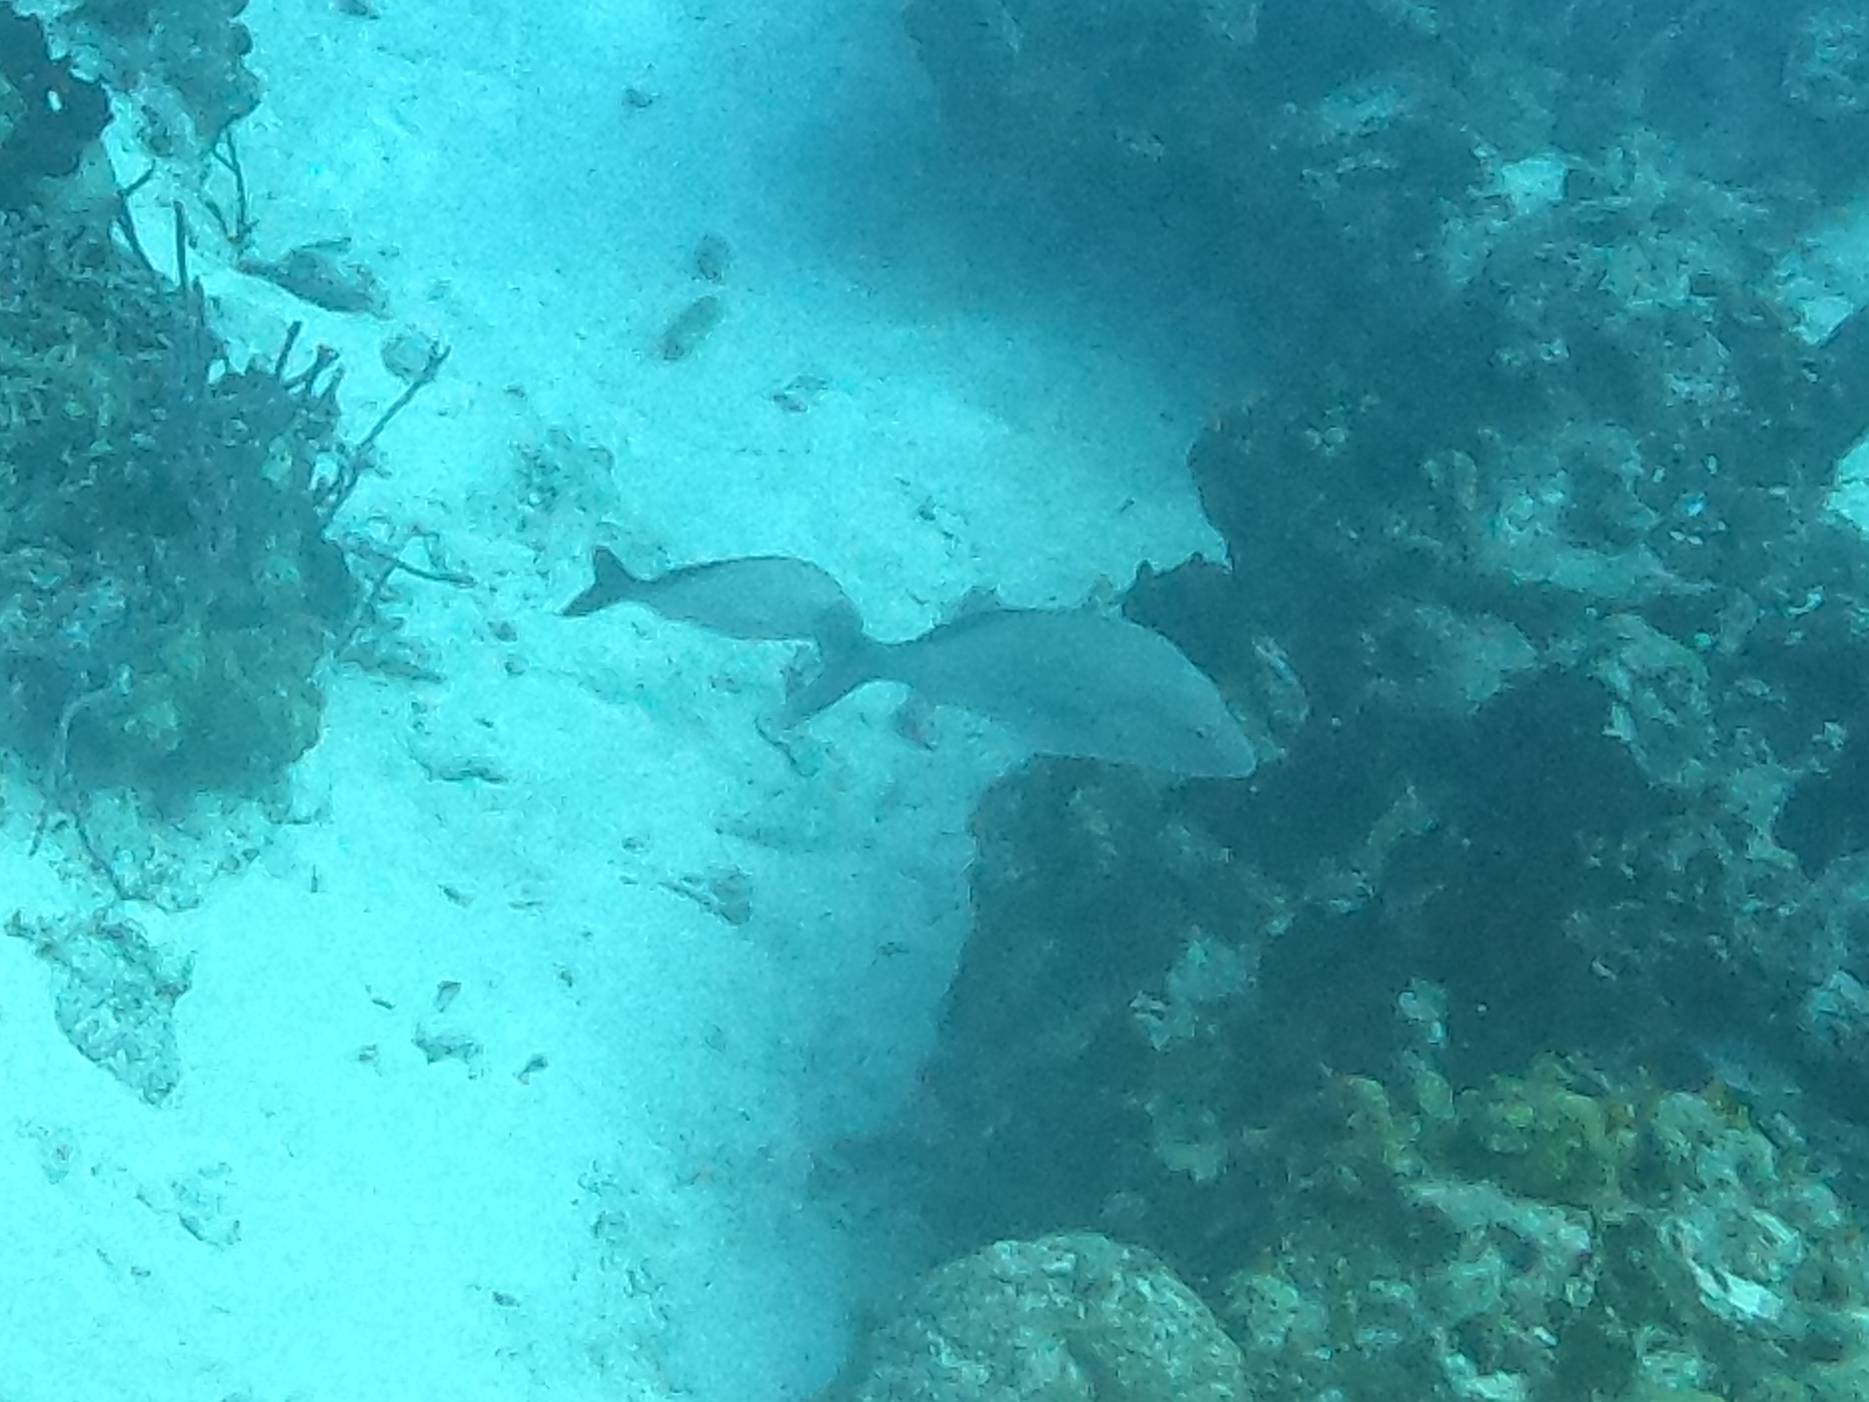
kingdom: Animalia
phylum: Chordata
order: Perciformes
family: Haemulidae
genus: Haemulon
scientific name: Haemulon album
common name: Margate
